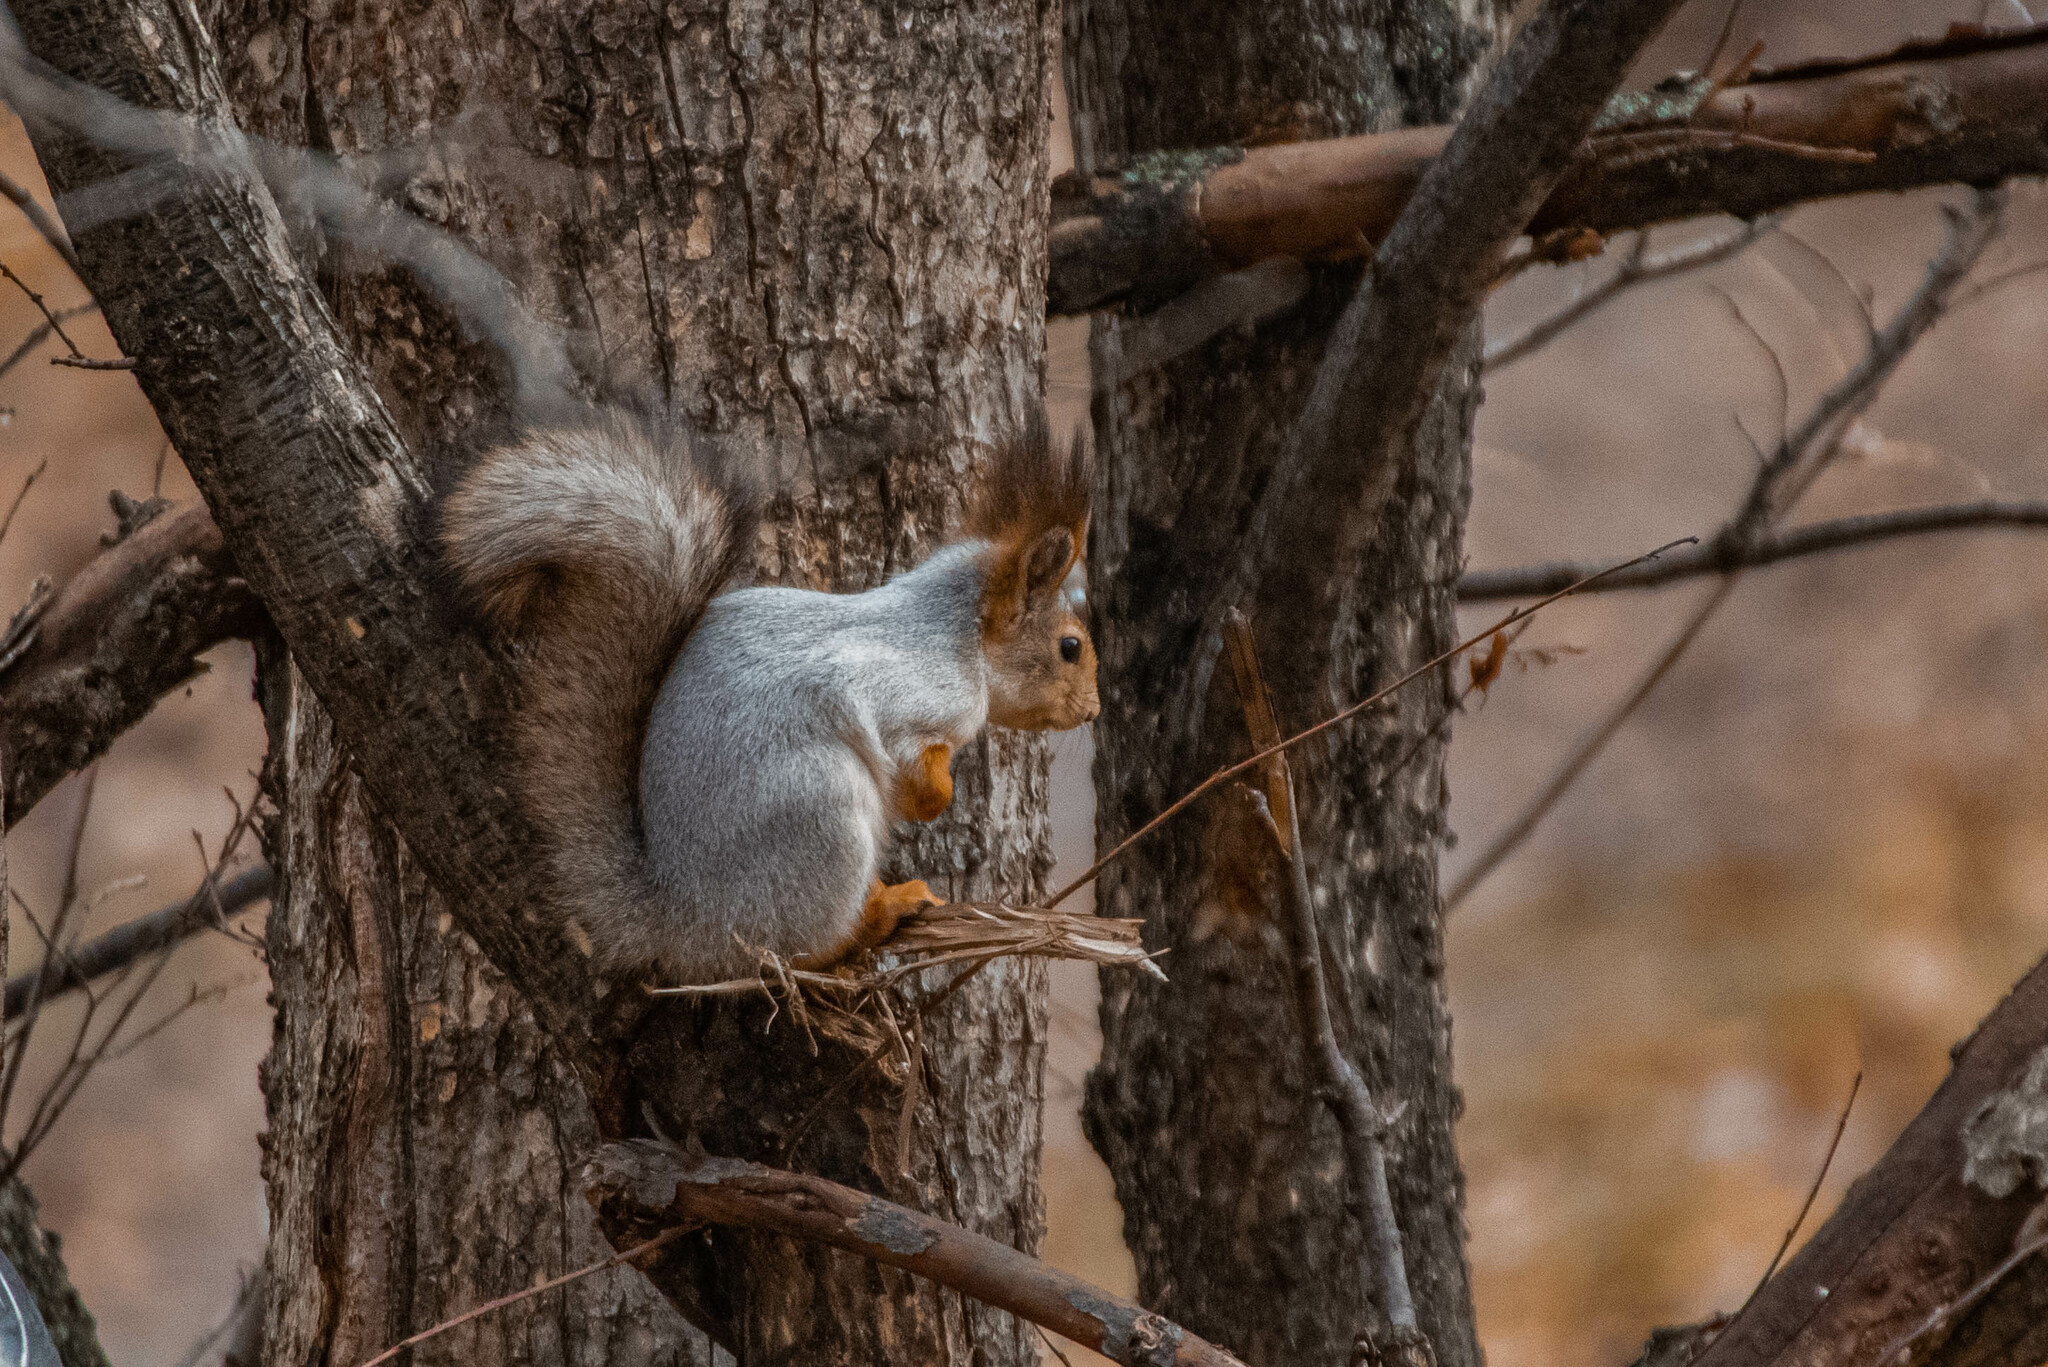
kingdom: Animalia
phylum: Chordata
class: Mammalia
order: Rodentia
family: Sciuridae
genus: Sciurus
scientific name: Sciurus vulgaris
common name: Eurasian red squirrel
